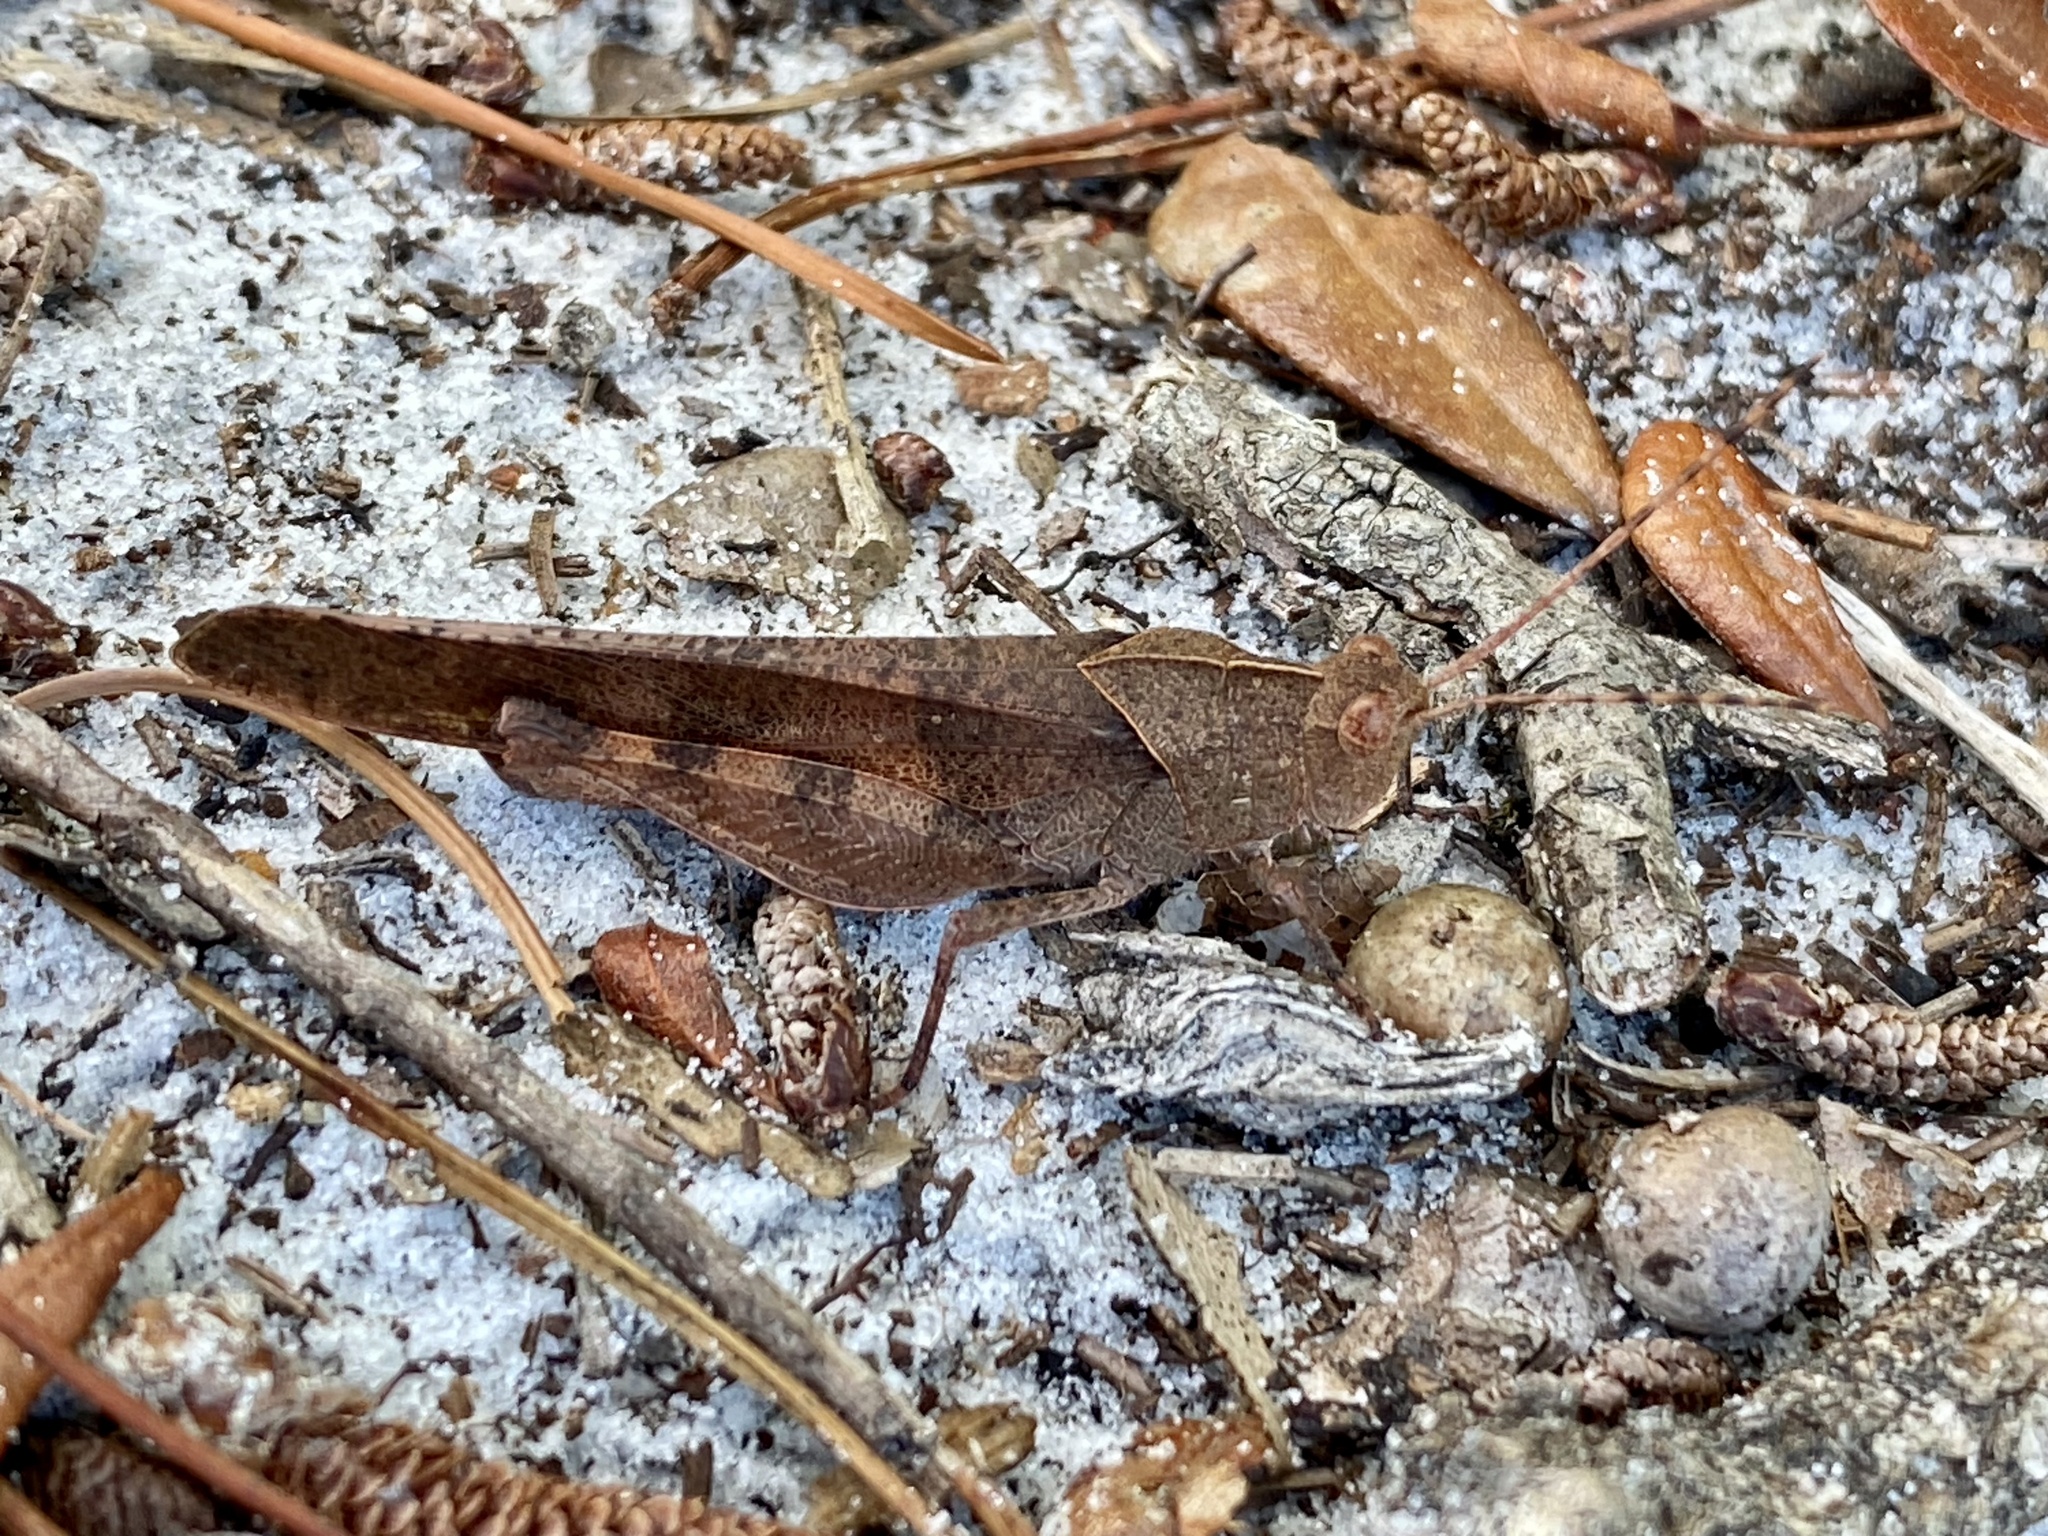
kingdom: Animalia
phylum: Arthropoda
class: Insecta
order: Orthoptera
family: Acrididae
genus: Spharagemon
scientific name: Spharagemon crepitans
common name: Crepitating grasshopper
